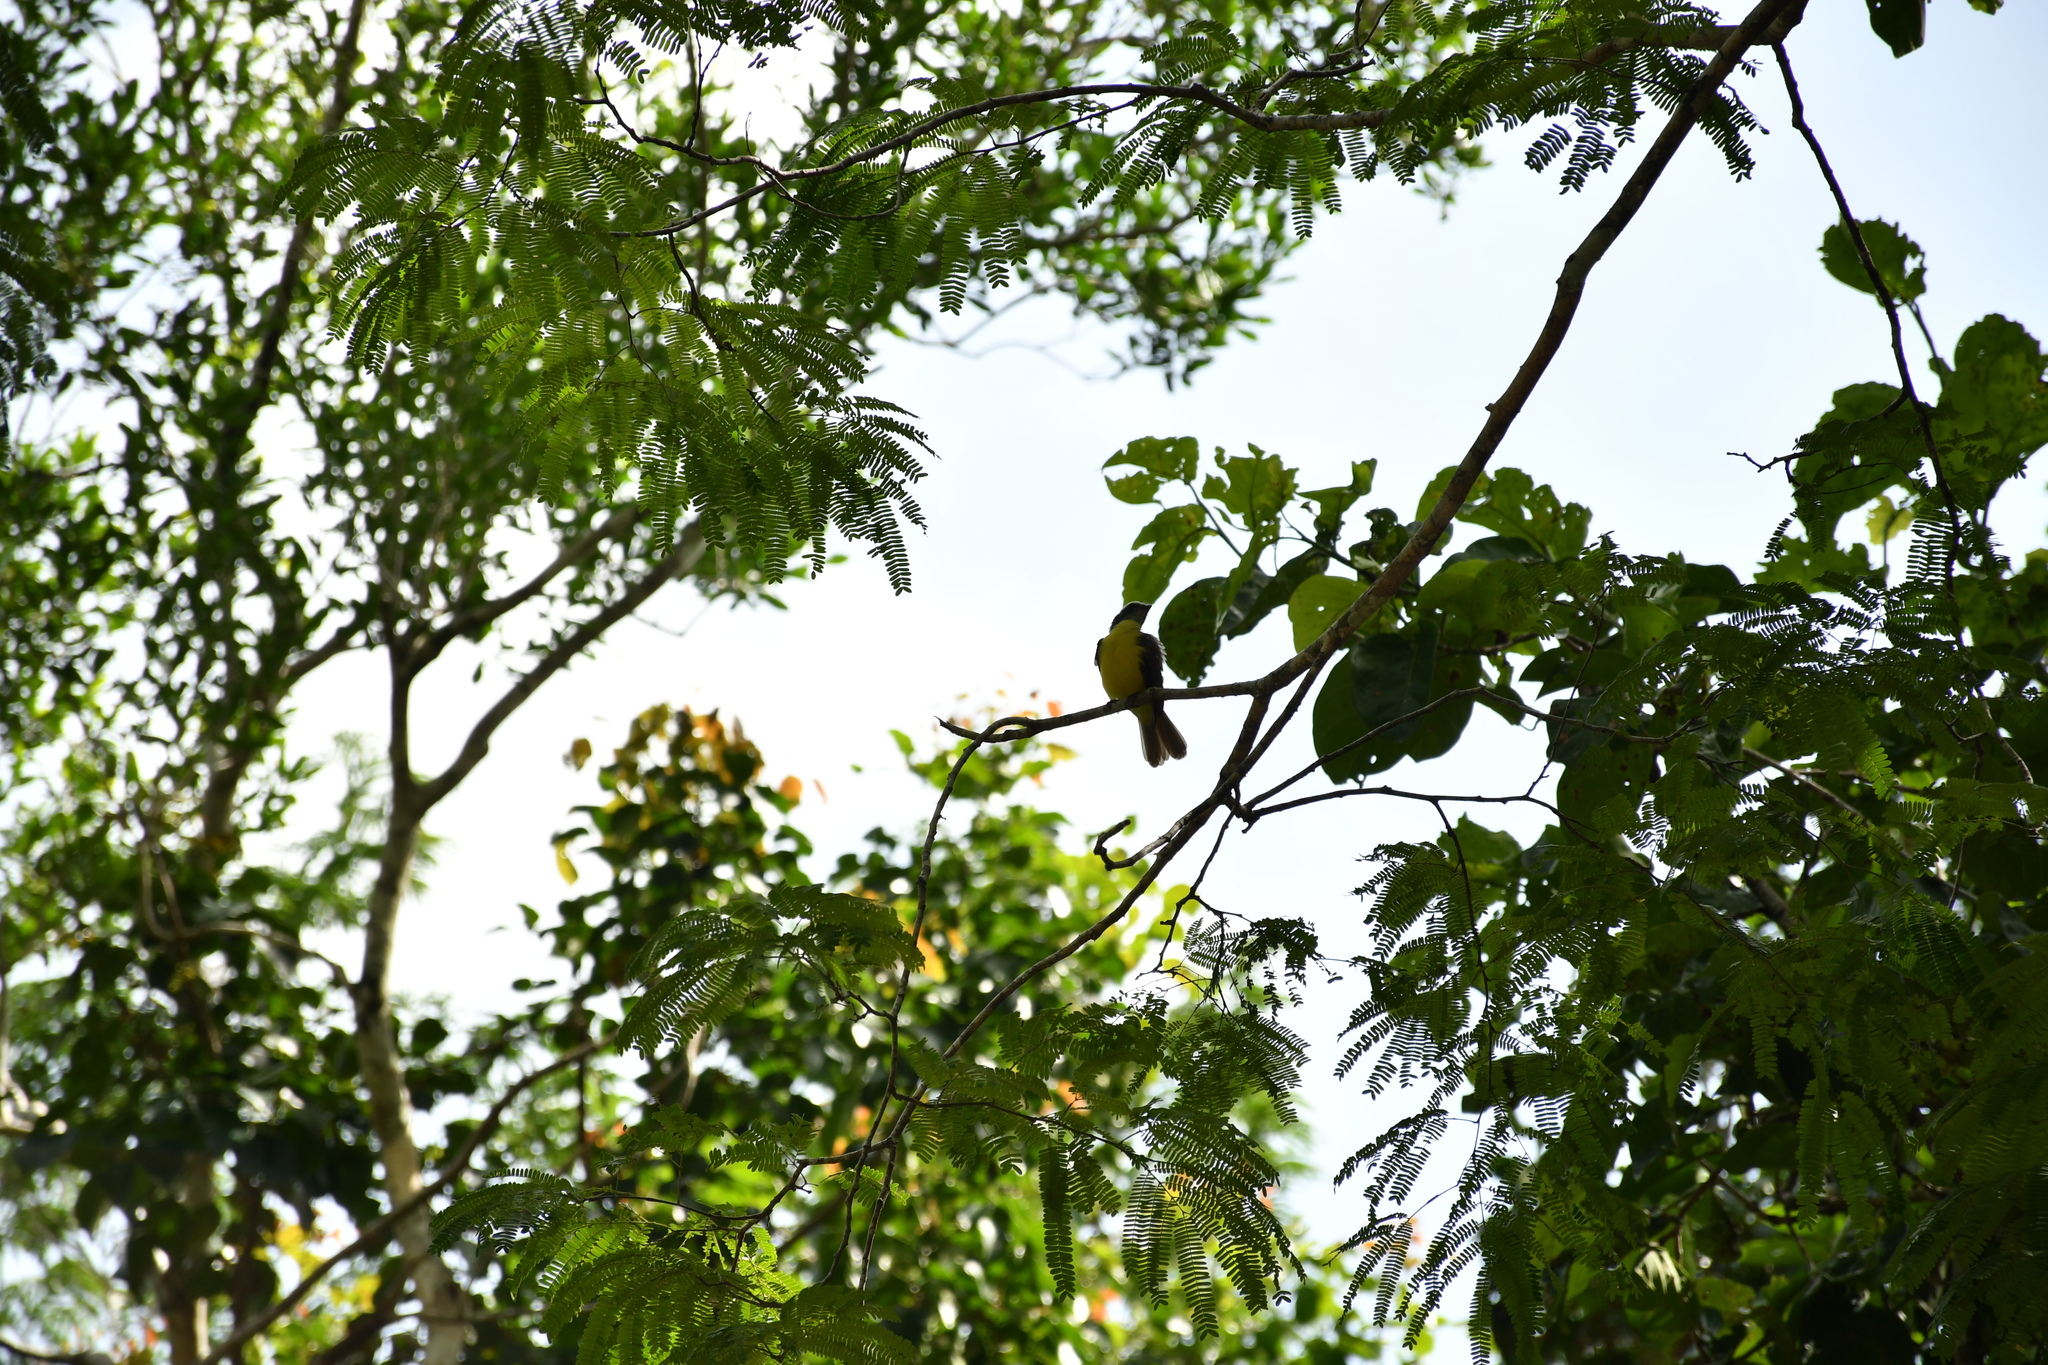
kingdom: Animalia
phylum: Chordata
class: Aves
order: Passeriformes
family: Tyrannidae
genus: Myiozetetes
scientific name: Myiozetetes similis
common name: Social flycatcher
